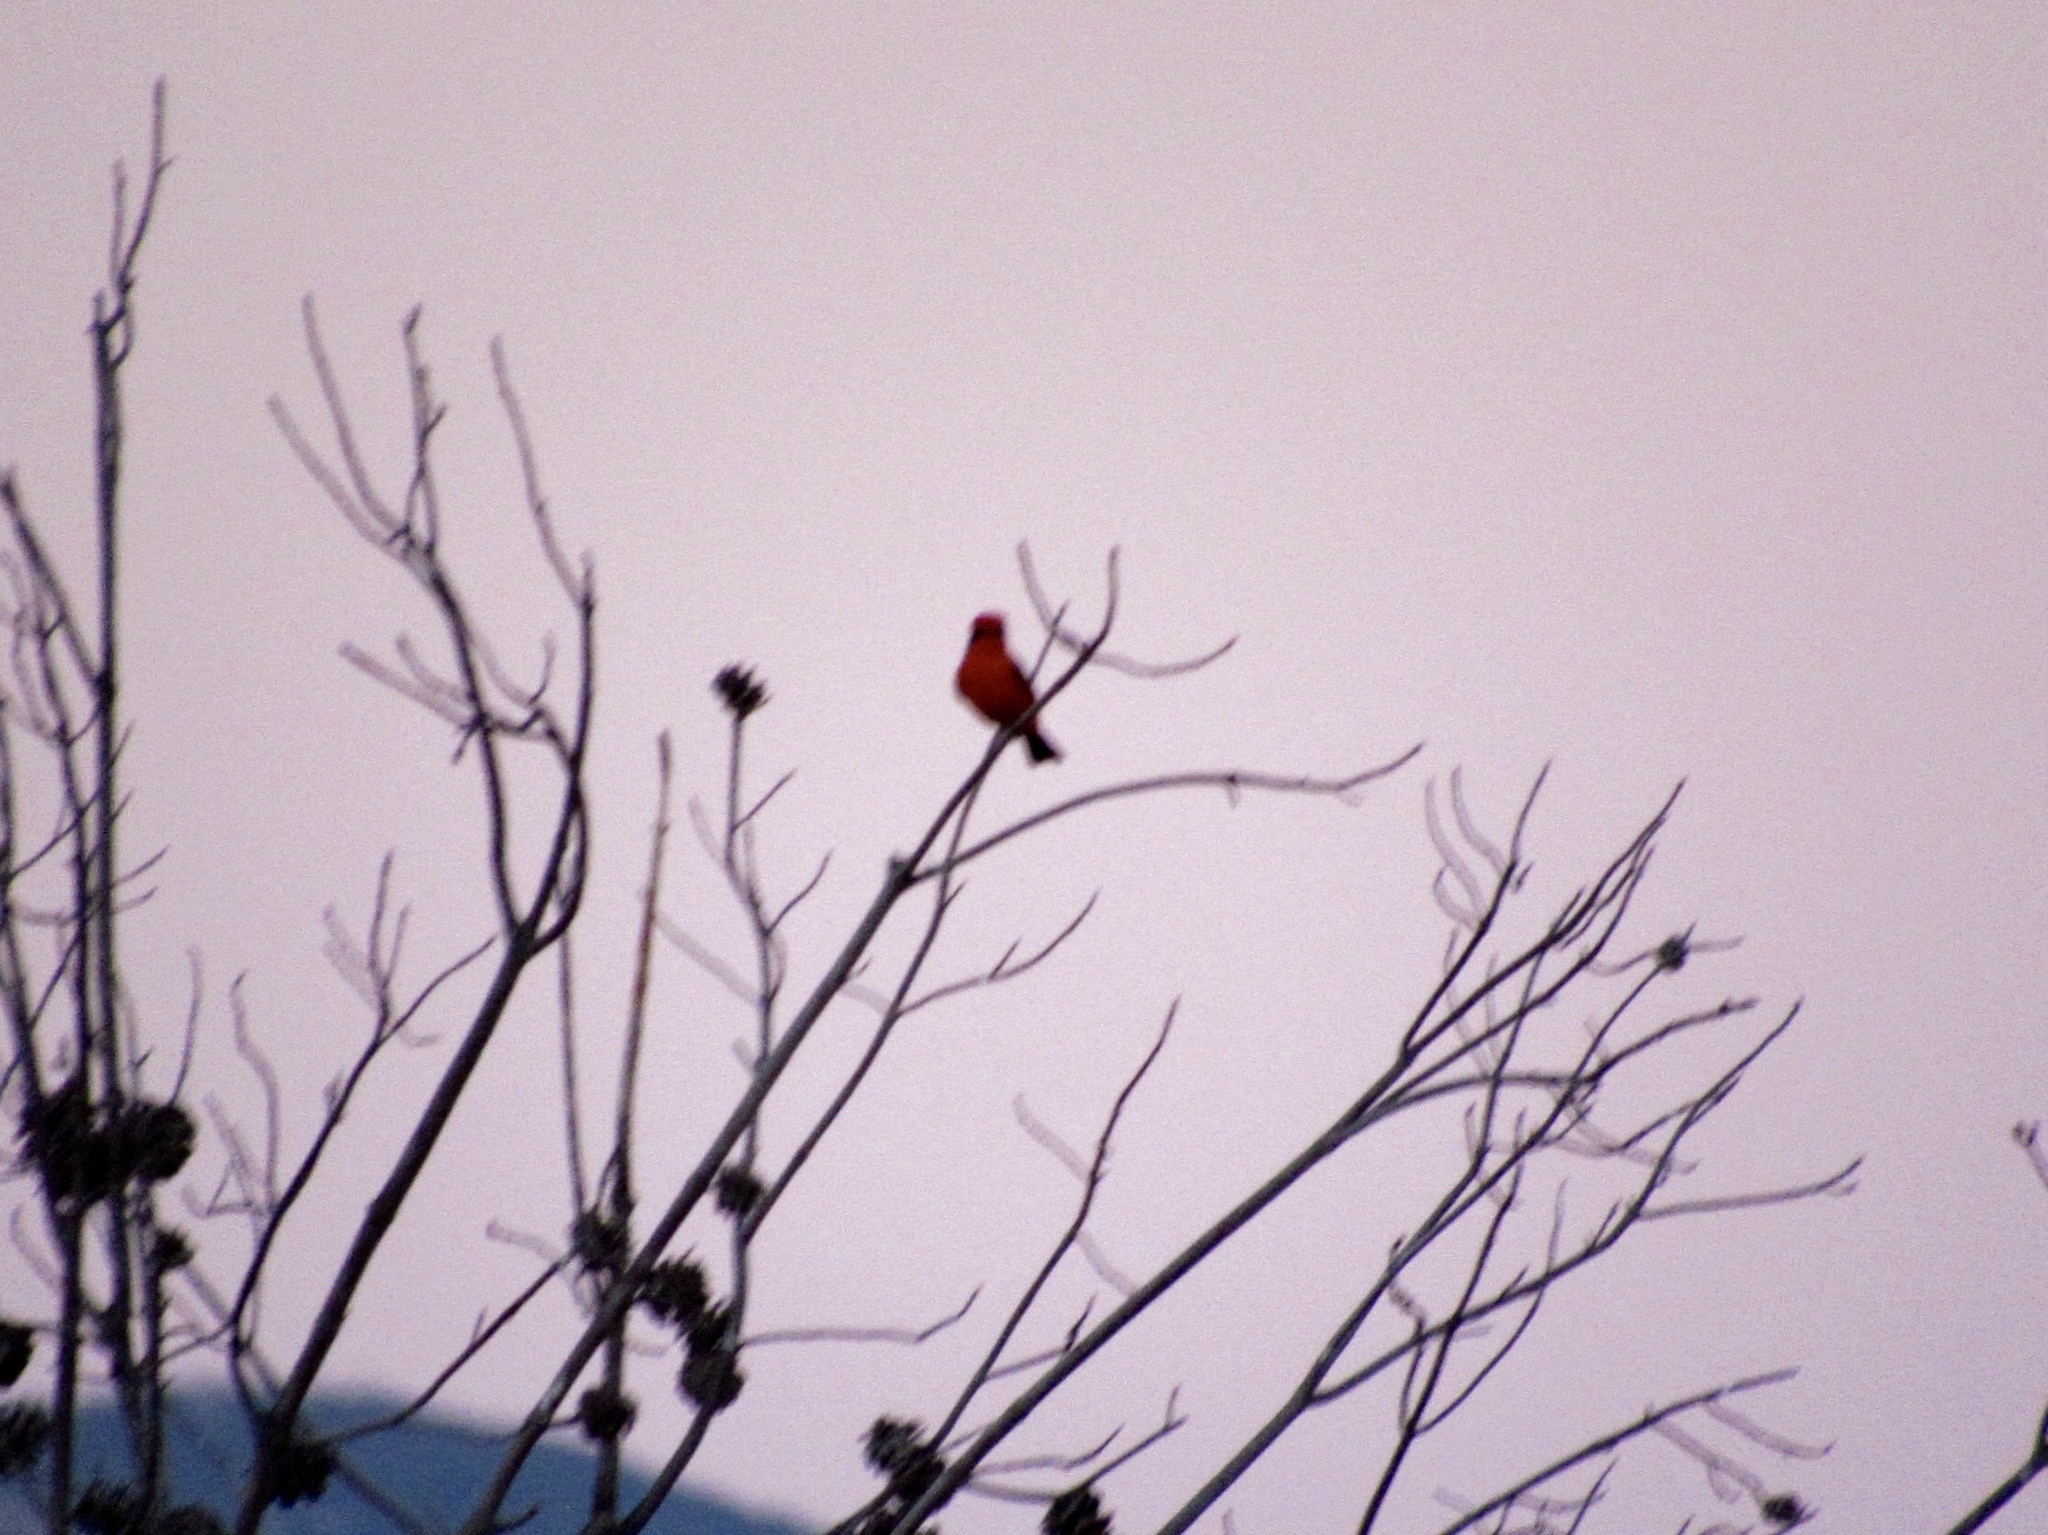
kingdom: Animalia
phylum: Chordata
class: Aves
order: Passeriformes
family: Tyrannidae
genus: Pyrocephalus
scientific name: Pyrocephalus rubinus
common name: Vermilion flycatcher
